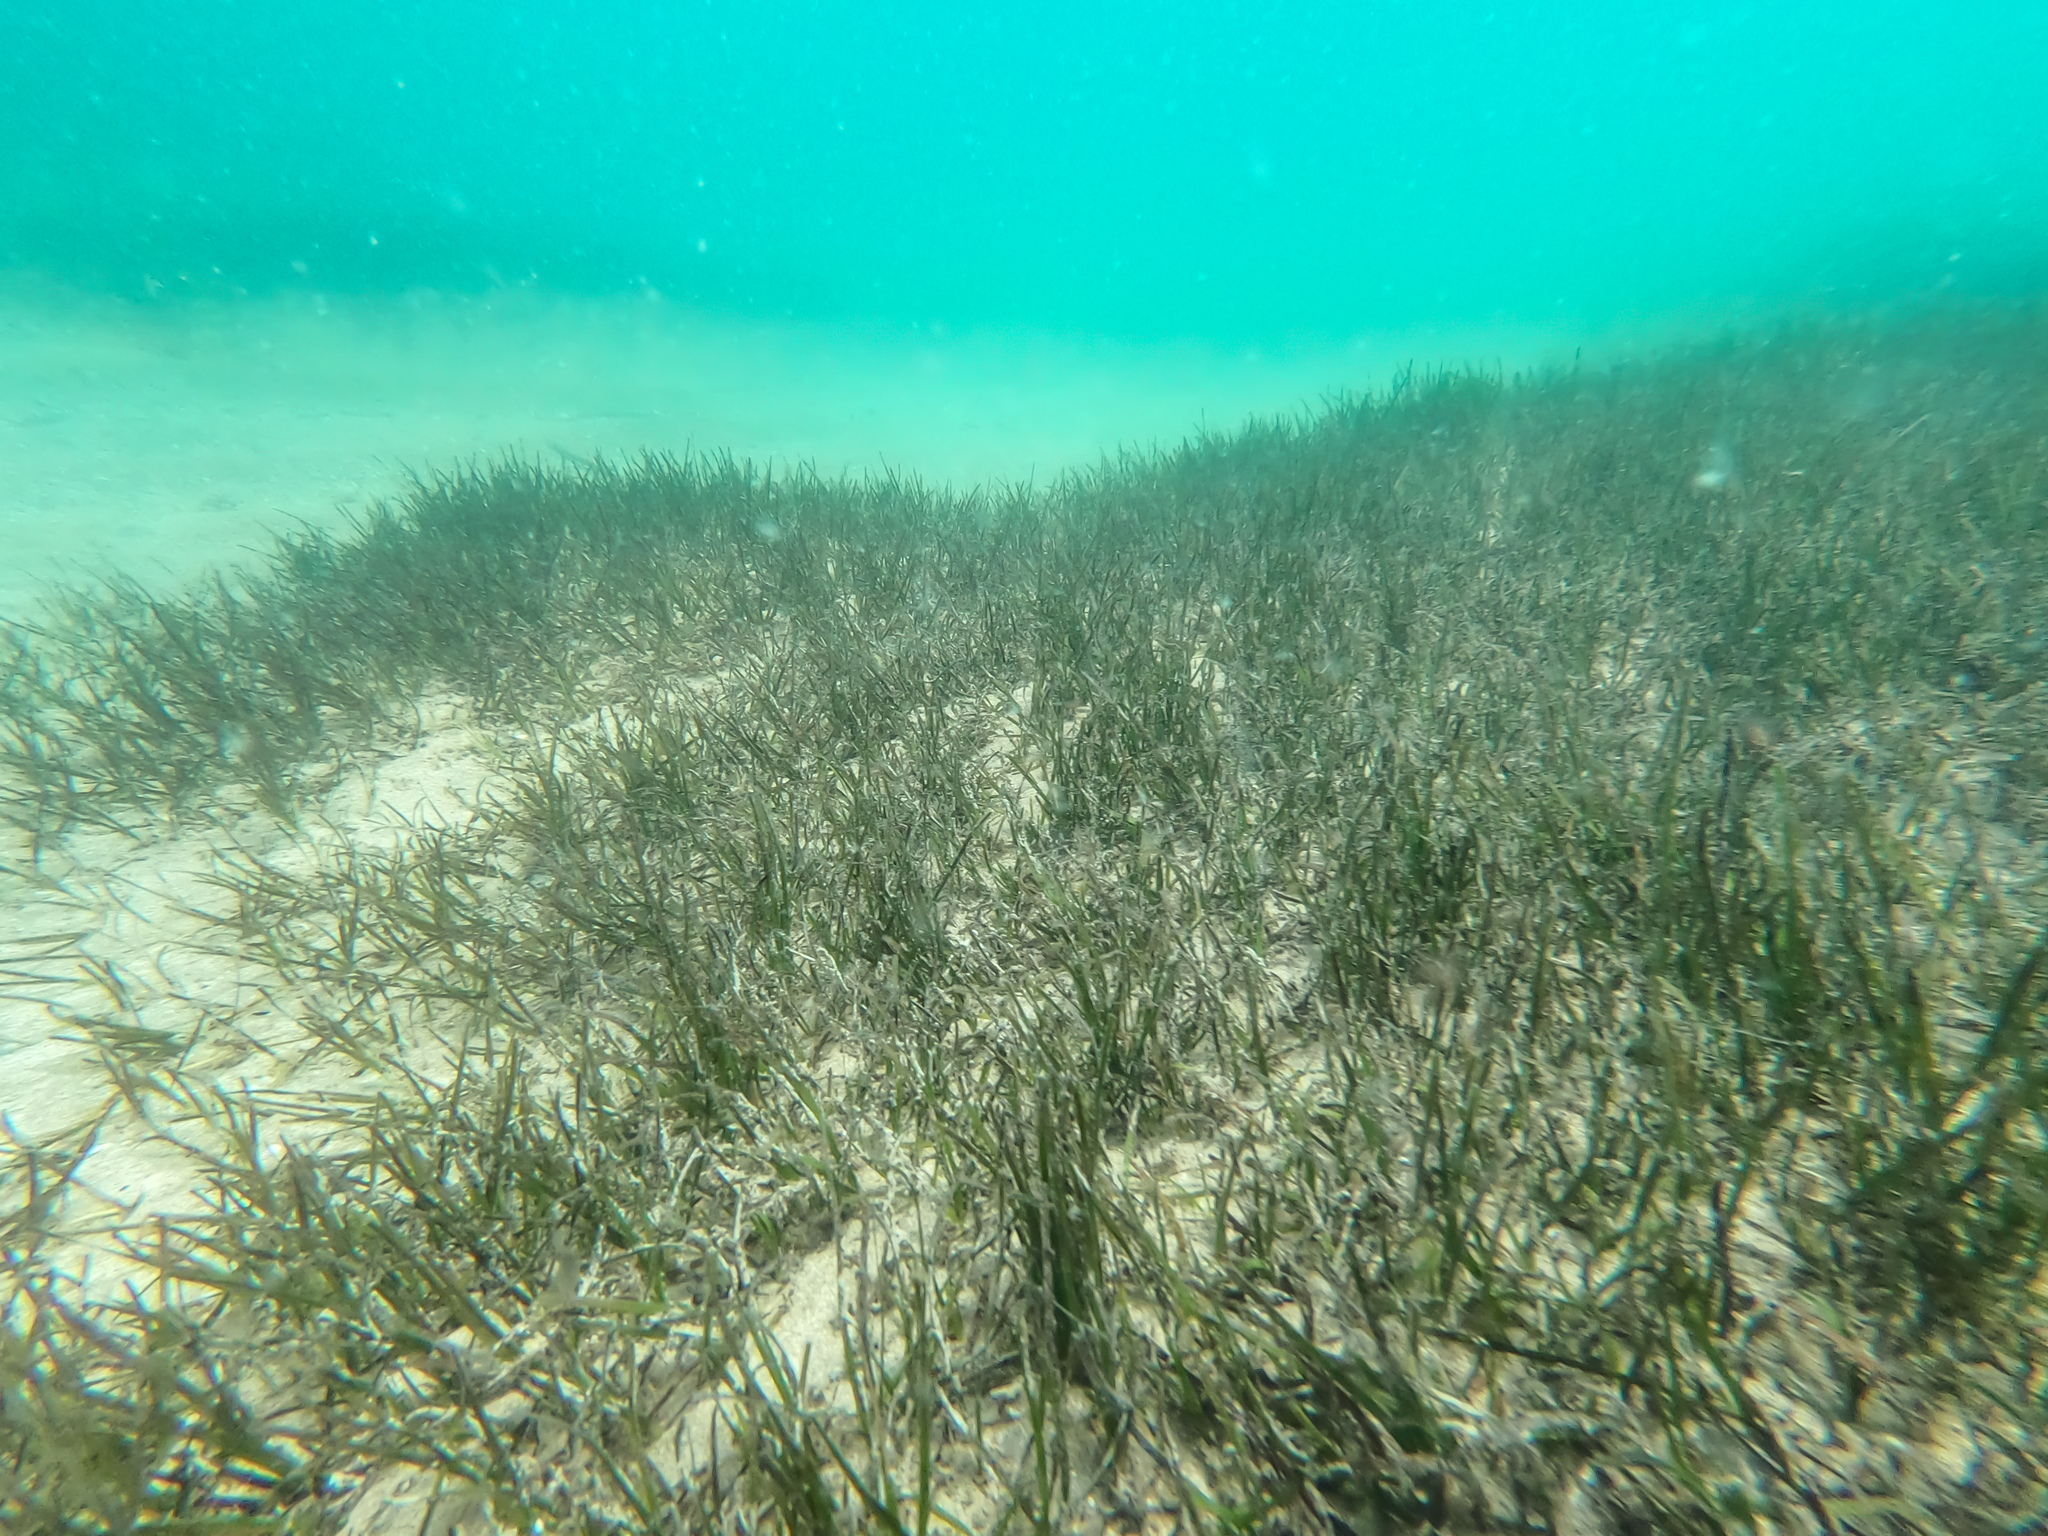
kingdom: Plantae
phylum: Tracheophyta
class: Liliopsida
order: Alismatales
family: Zosteraceae
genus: Zostera
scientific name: Zostera novazelandica
